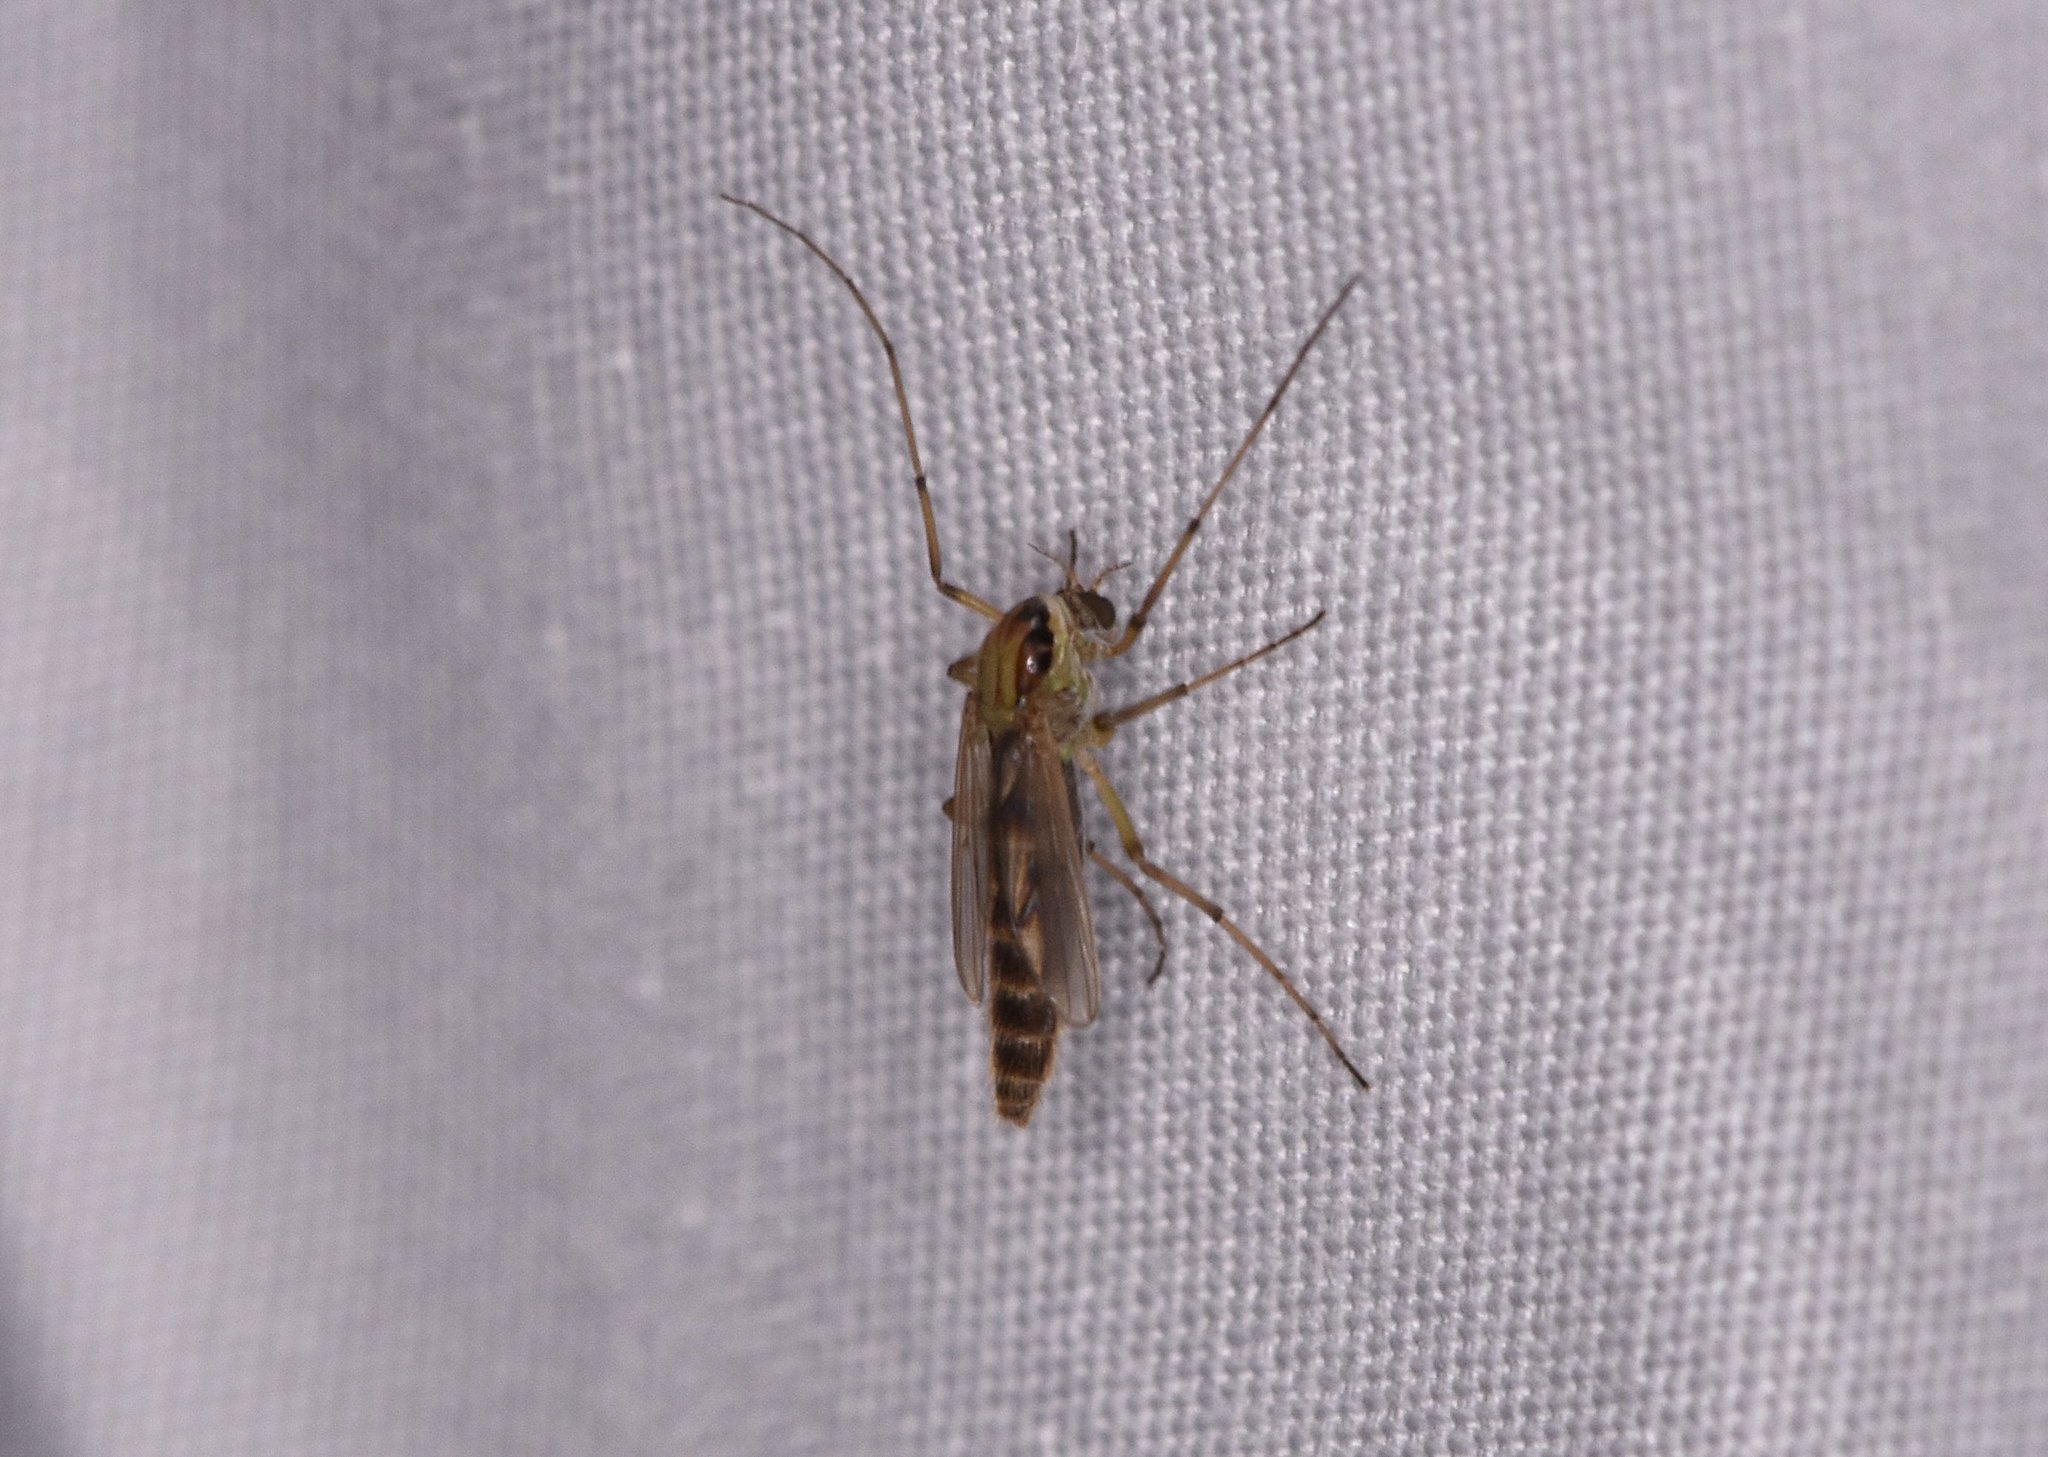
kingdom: Animalia
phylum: Arthropoda
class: Insecta
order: Diptera
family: Chironomidae
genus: Goeldichironomus
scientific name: Goeldichironomus carus
